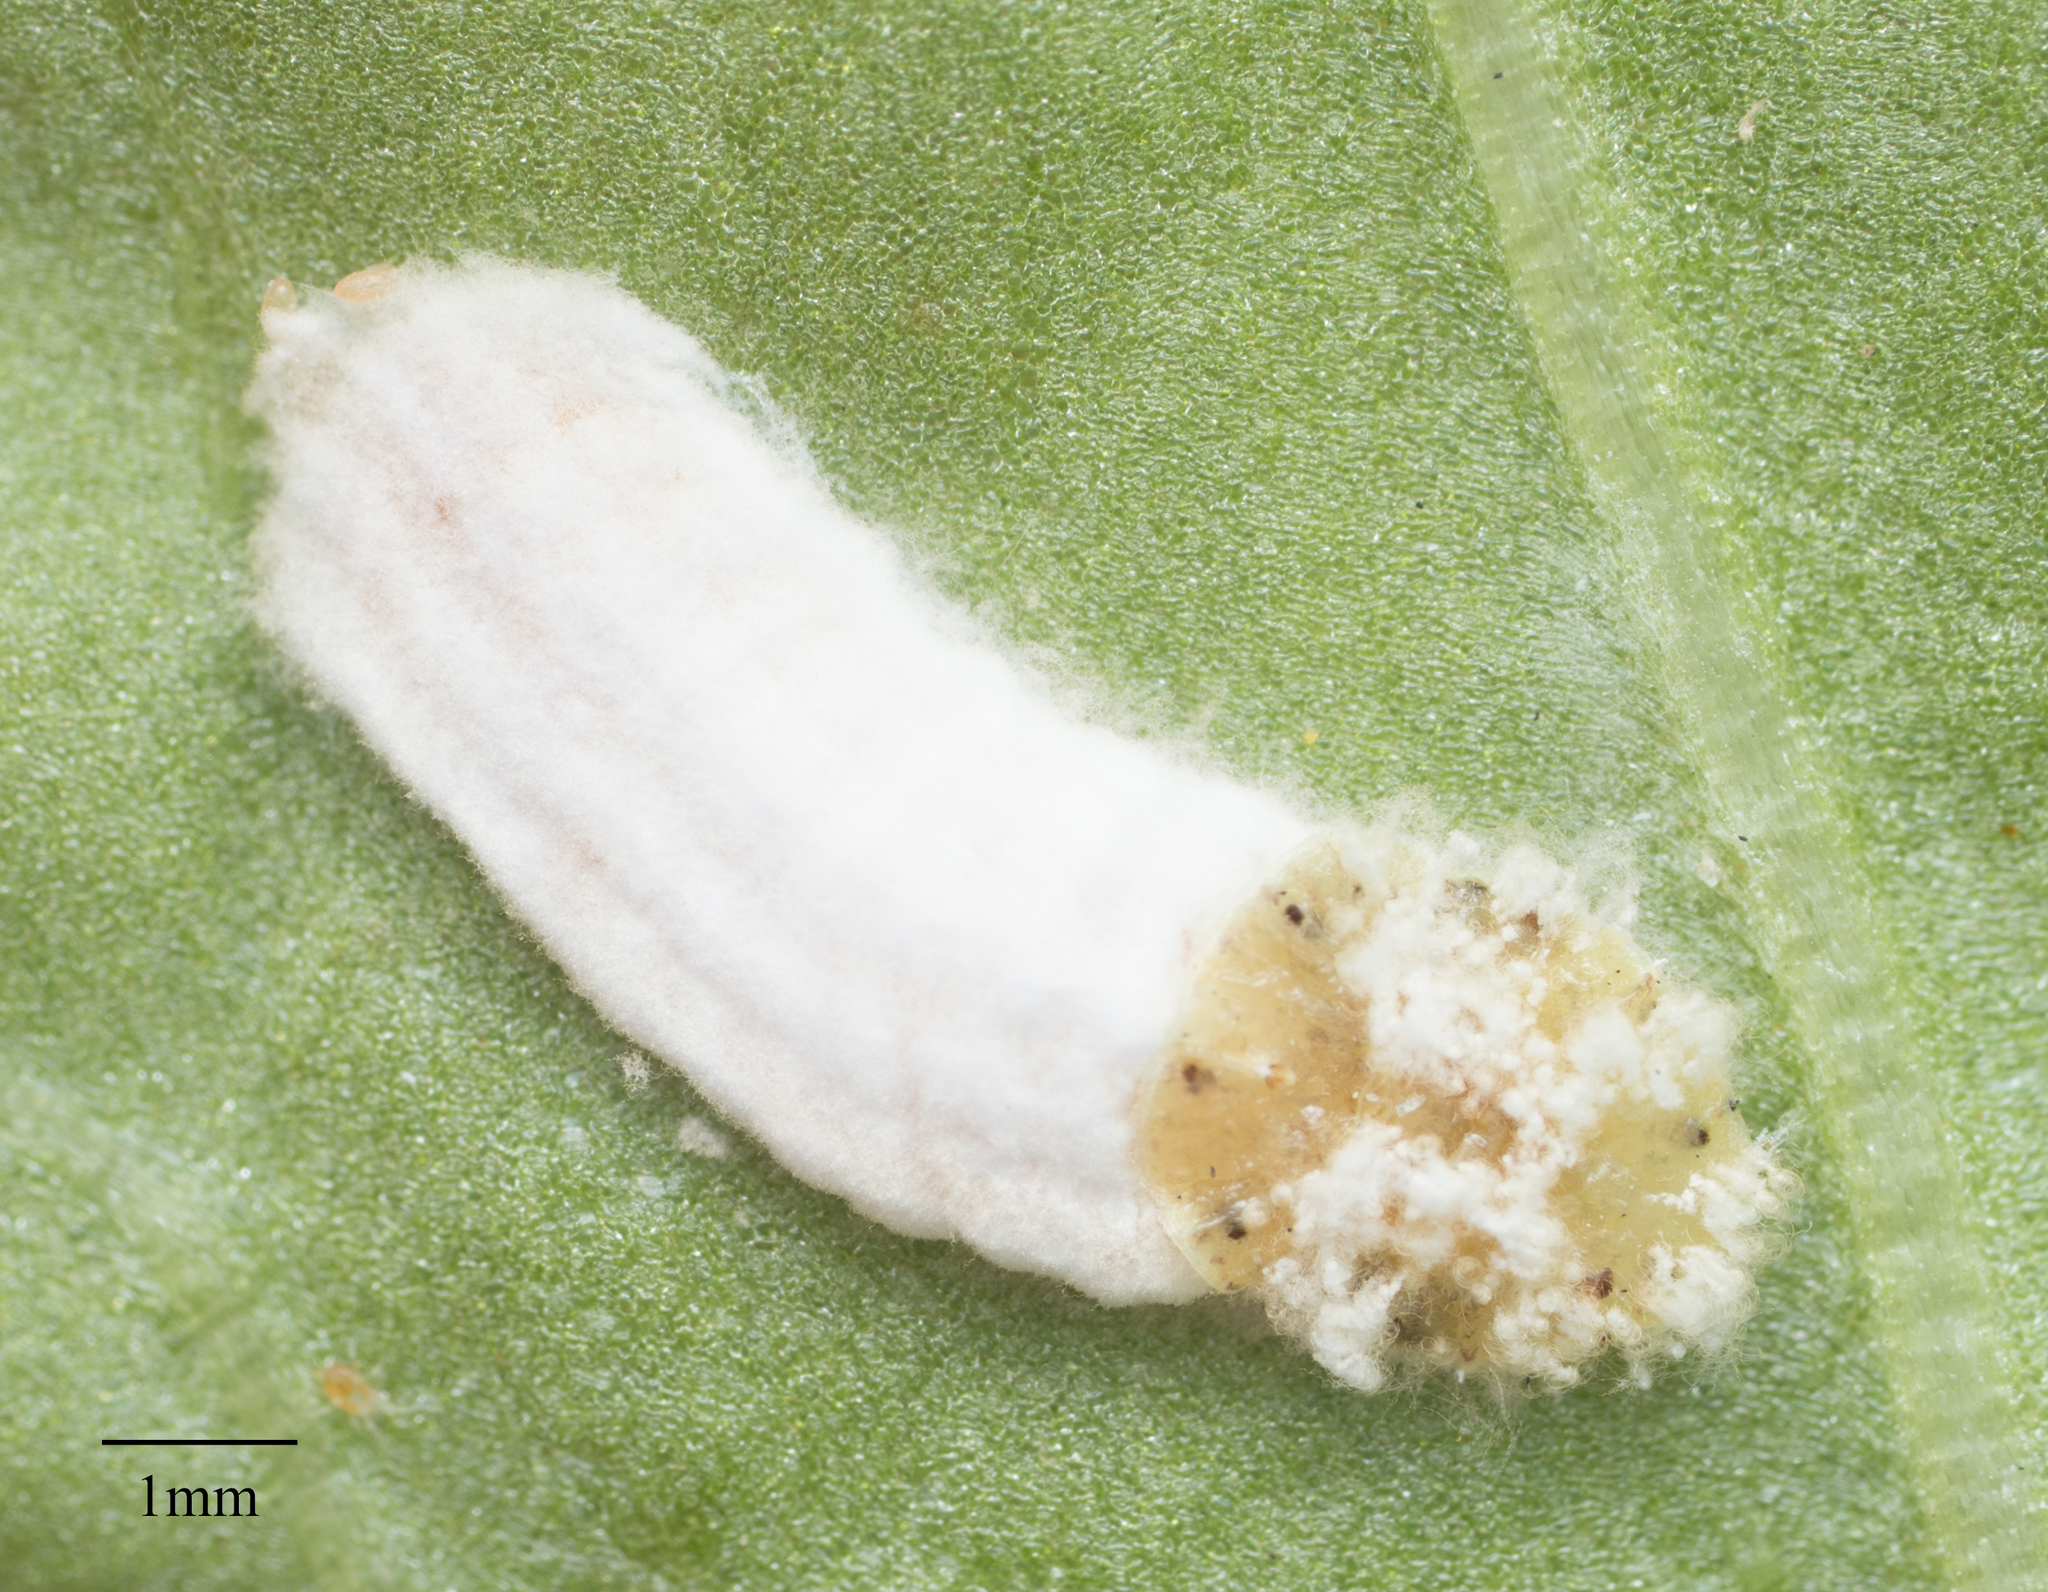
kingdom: Animalia
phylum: Arthropoda
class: Insecta
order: Hemiptera
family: Coccidae
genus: Pulvinaria
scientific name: Pulvinaria floccifera
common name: Cottony camellia scale
